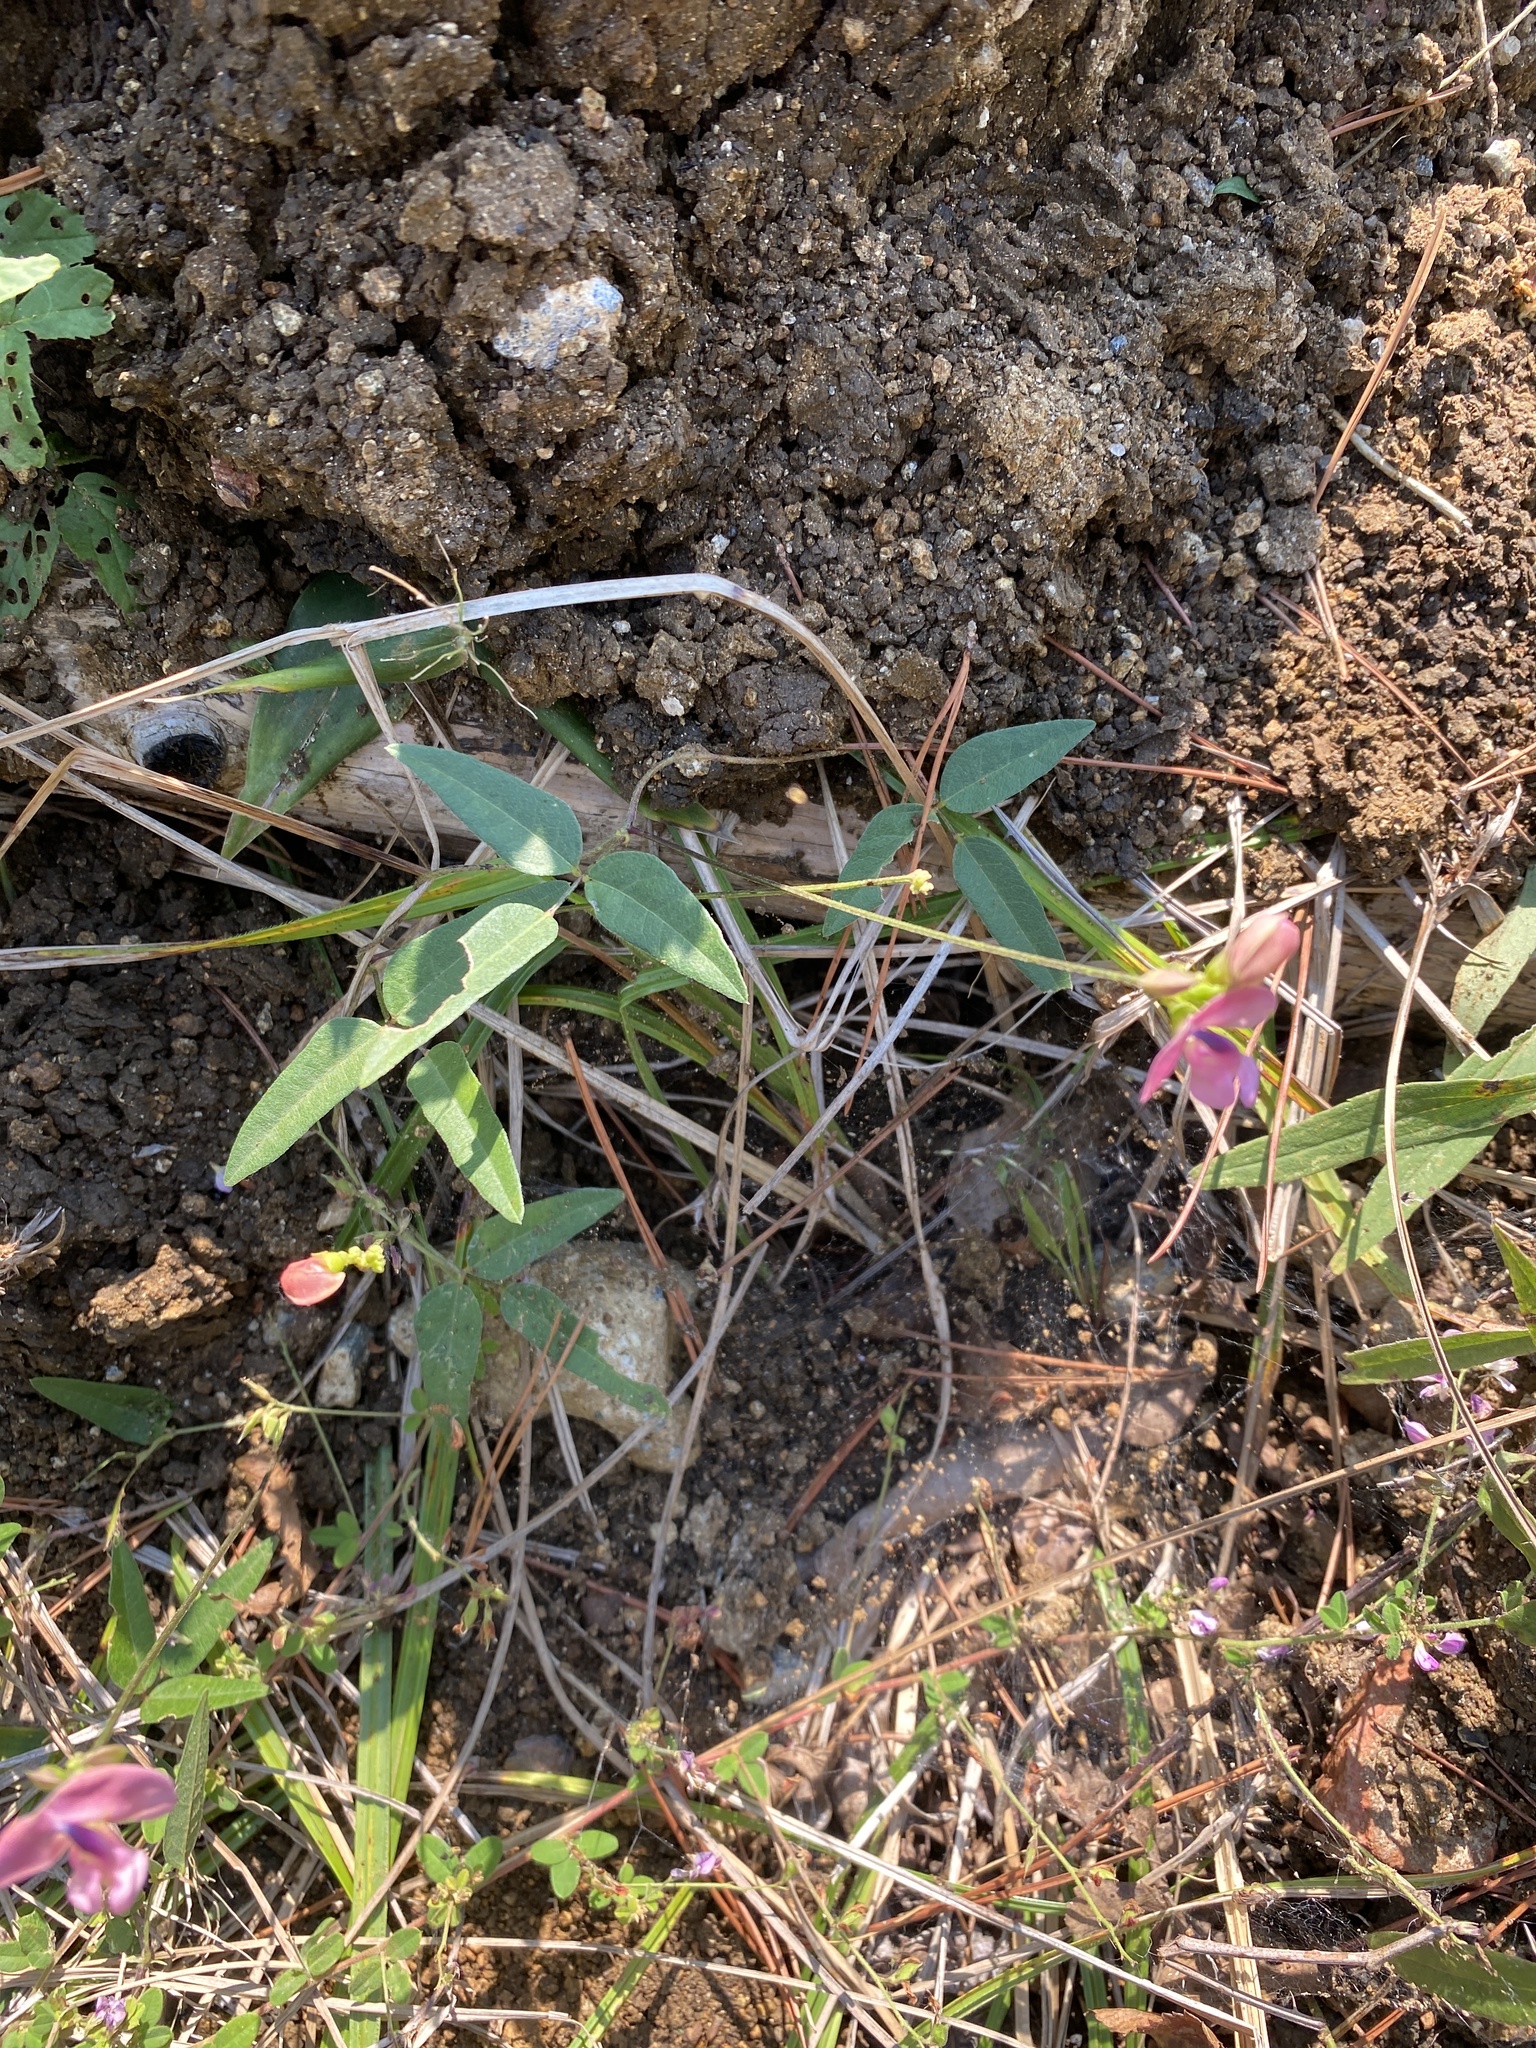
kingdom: Plantae
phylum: Tracheophyta
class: Magnoliopsida
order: Fabales
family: Fabaceae
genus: Strophostyles
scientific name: Strophostyles umbellata
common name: Perennial wild bean
